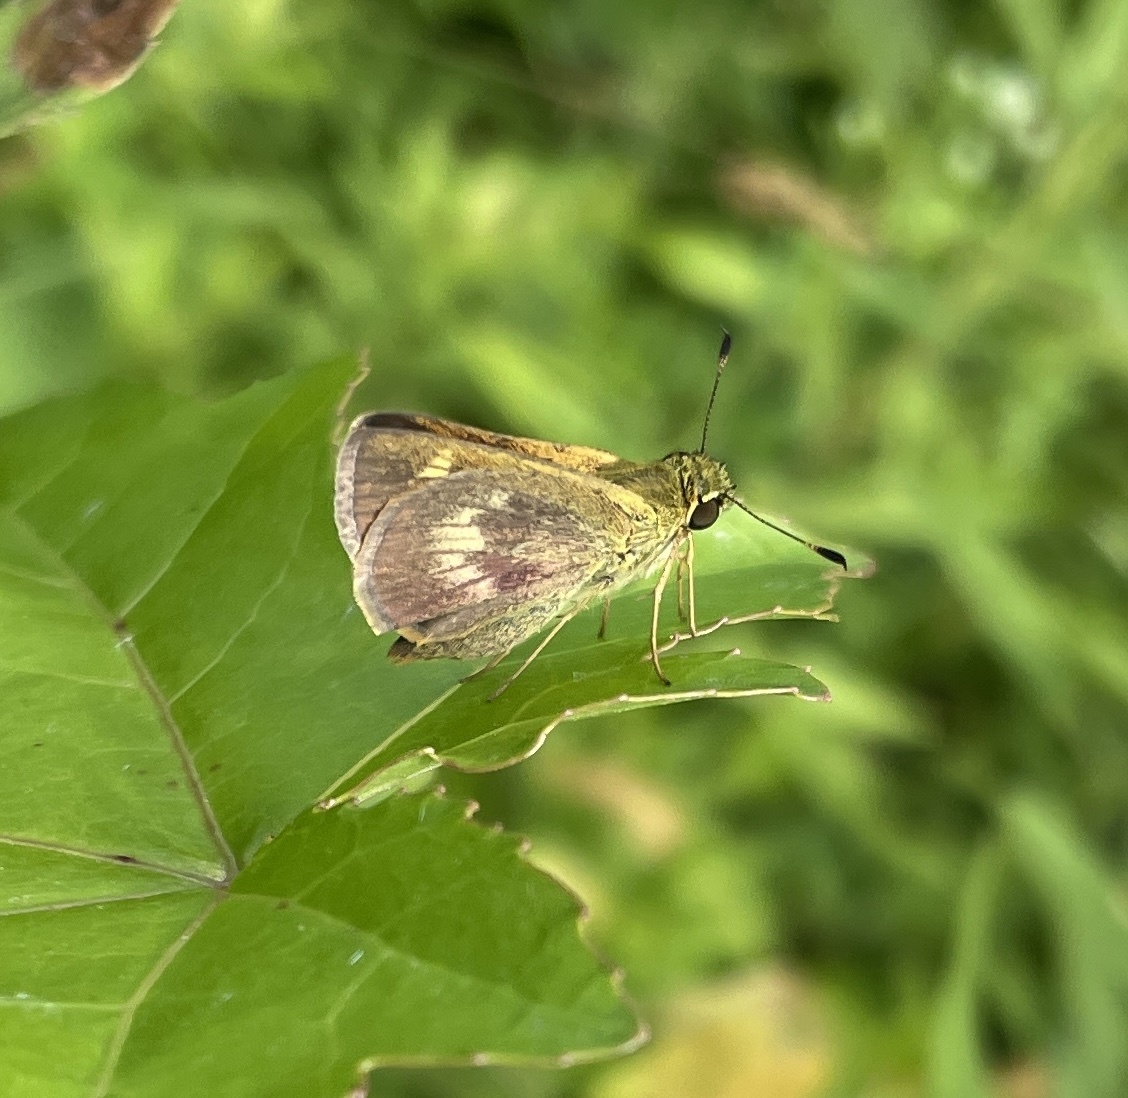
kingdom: Animalia
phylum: Arthropoda
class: Insecta
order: Lepidoptera
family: Hesperiidae
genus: Polites
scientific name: Polites egeremet
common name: Northern broken-dash
